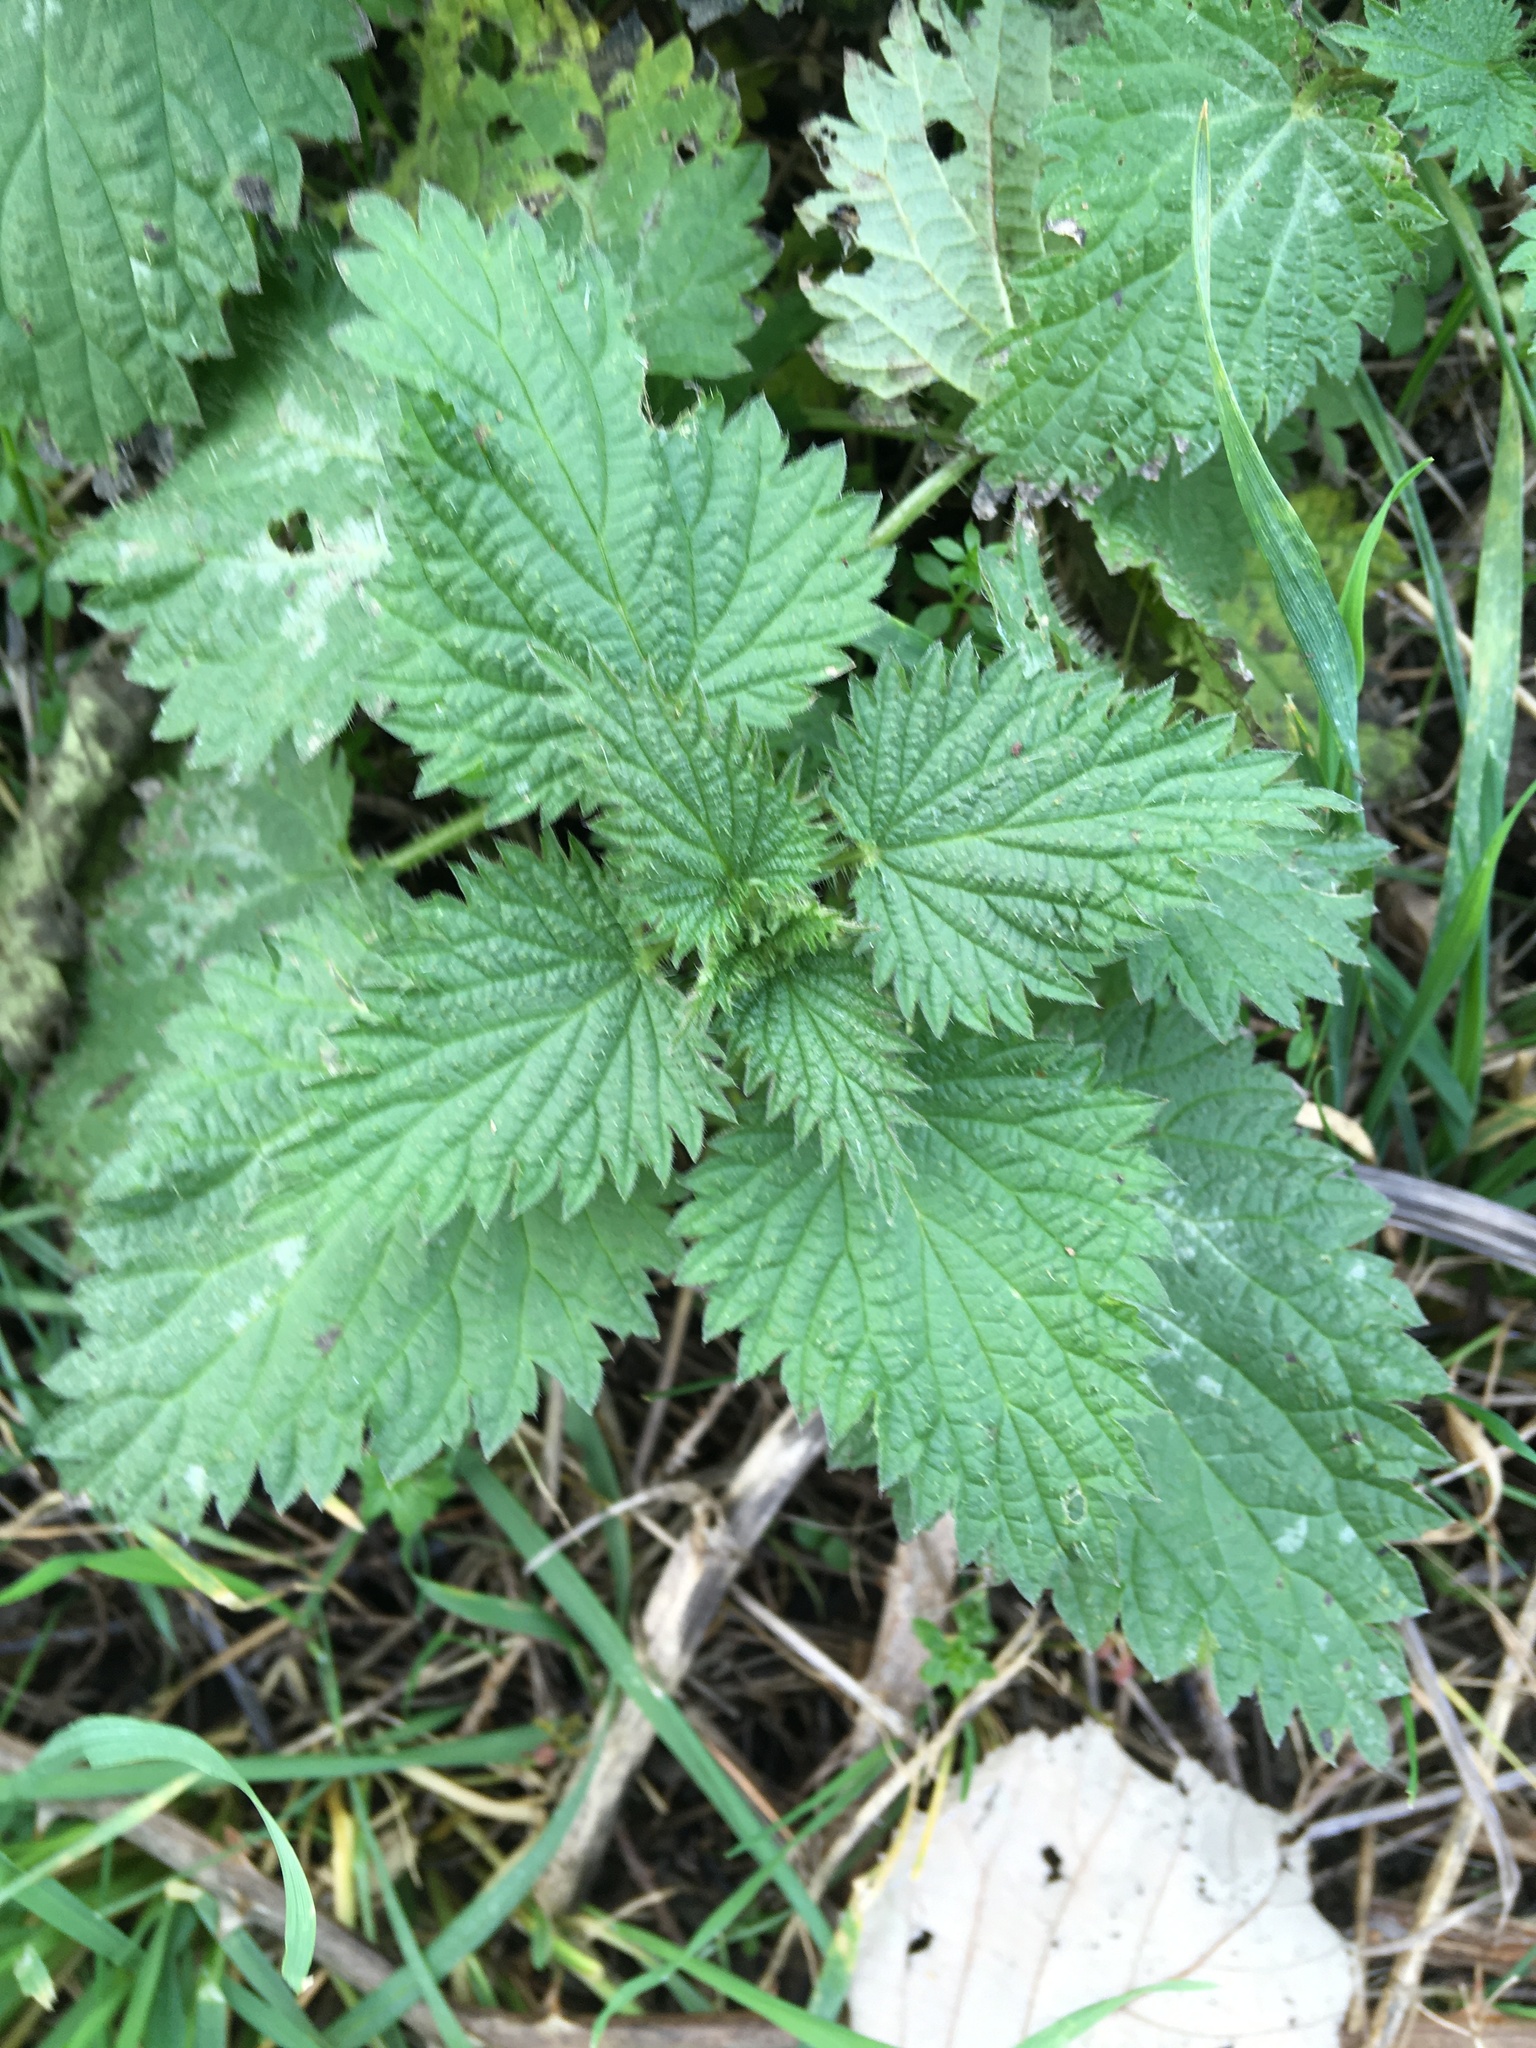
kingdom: Plantae
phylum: Tracheophyta
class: Magnoliopsida
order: Rosales
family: Urticaceae
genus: Urtica
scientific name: Urtica dioica
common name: Common nettle
